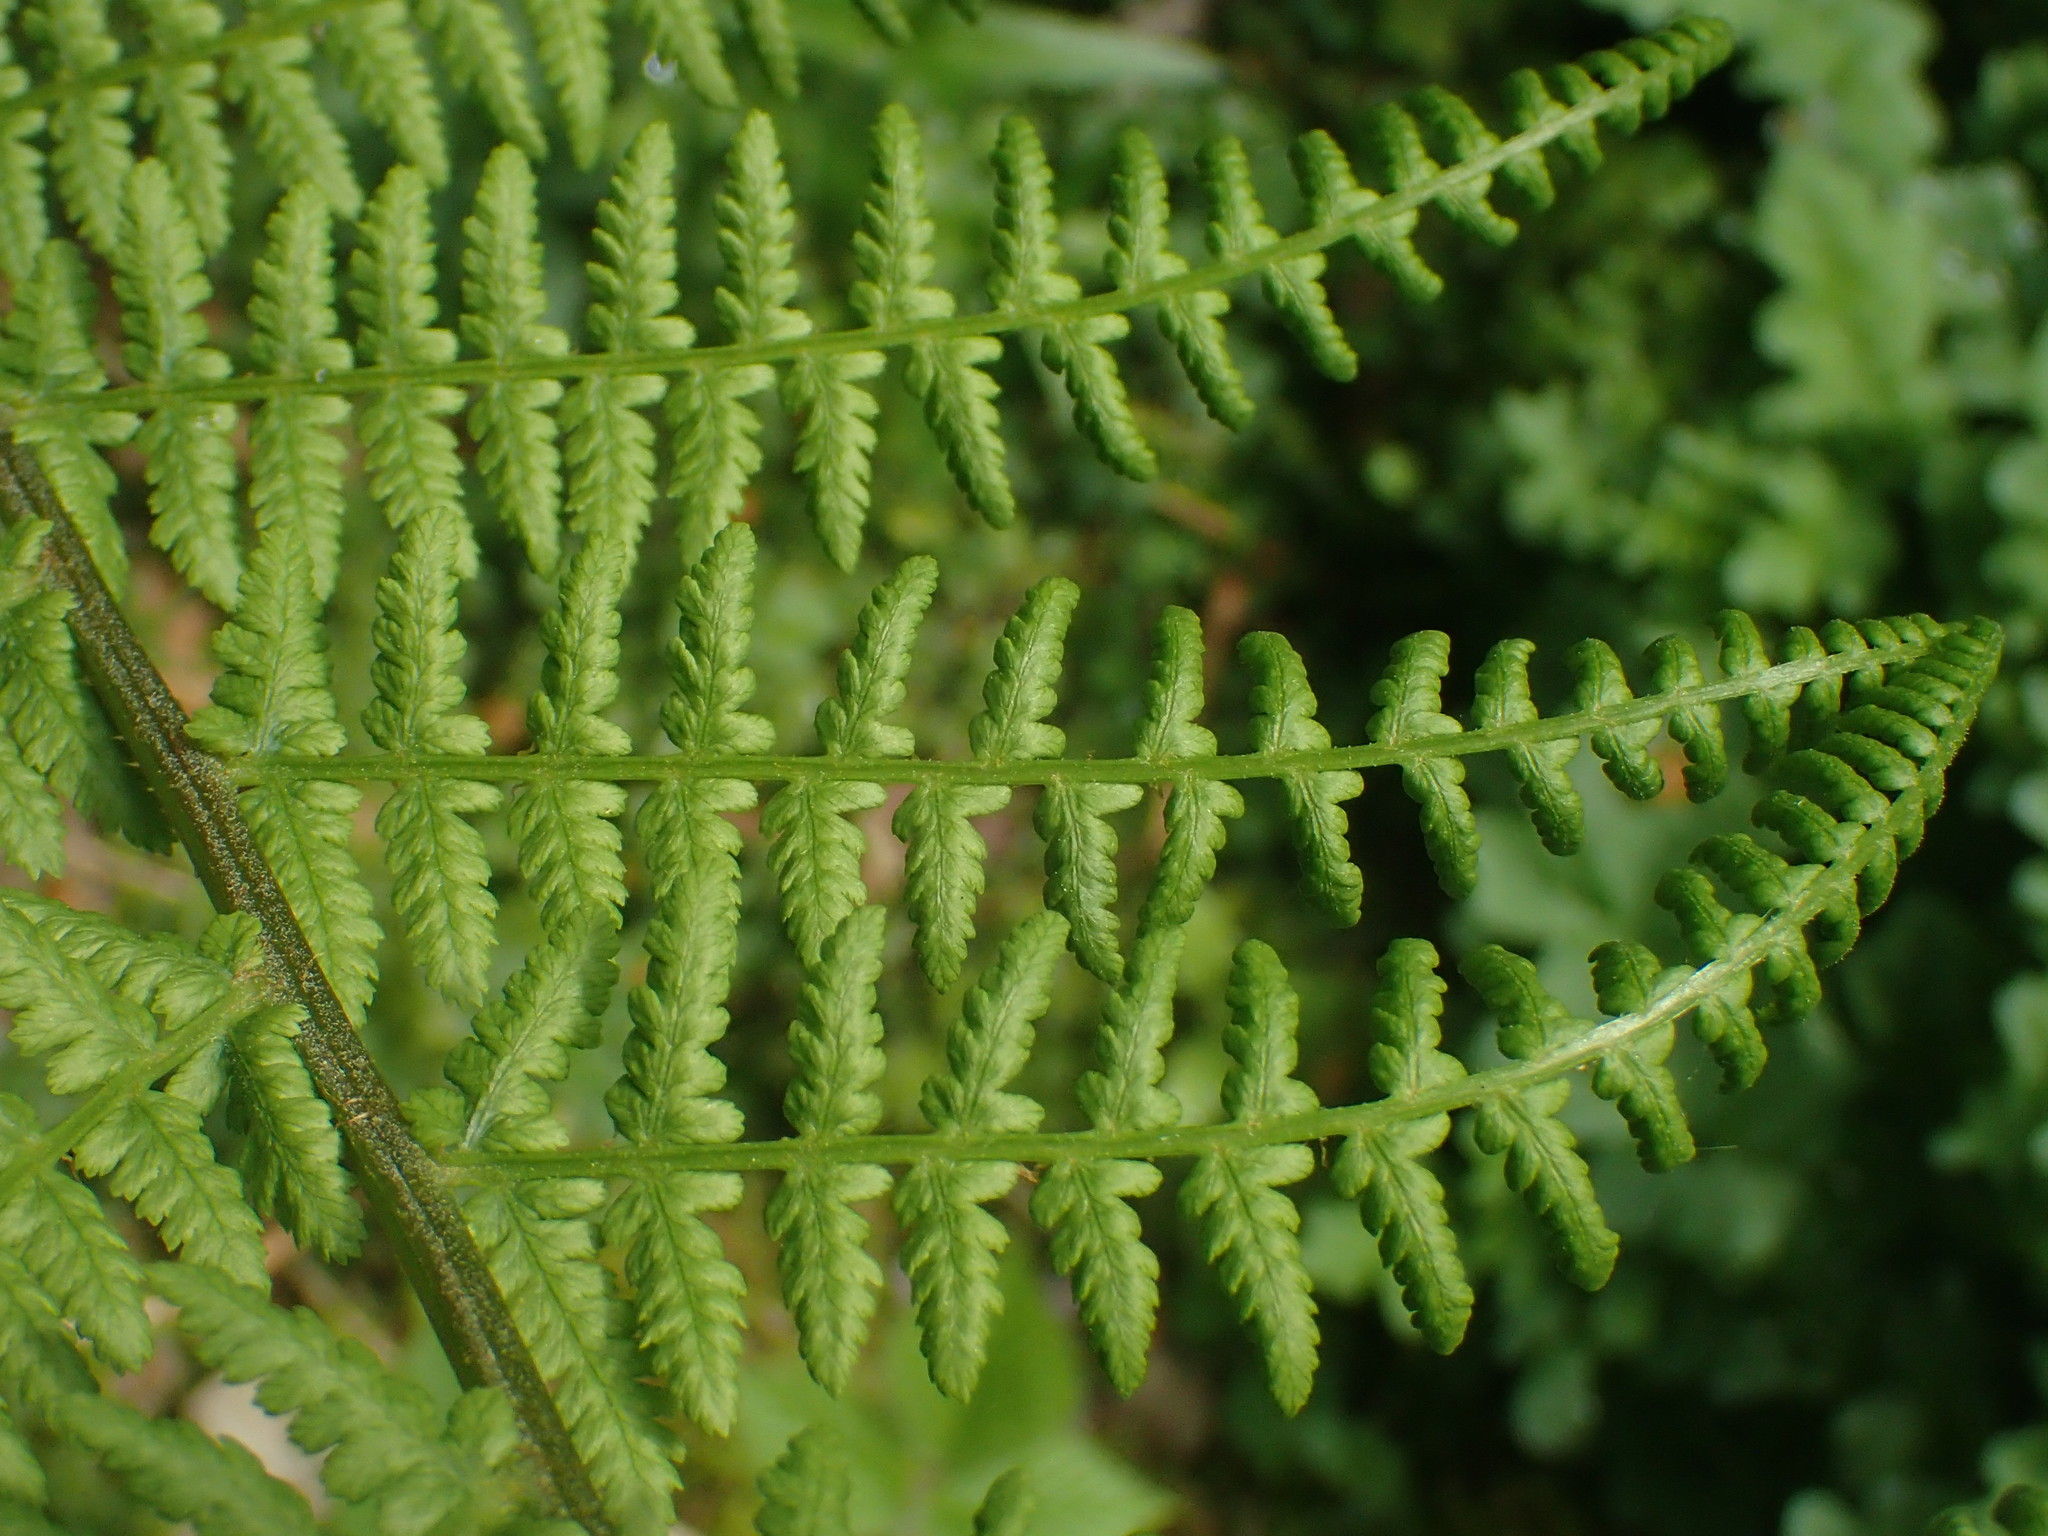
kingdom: Plantae
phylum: Tracheophyta
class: Polypodiopsida
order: Polypodiales
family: Athyriaceae
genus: Athyrium
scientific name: Athyrium filix-femina
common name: Lady fern
